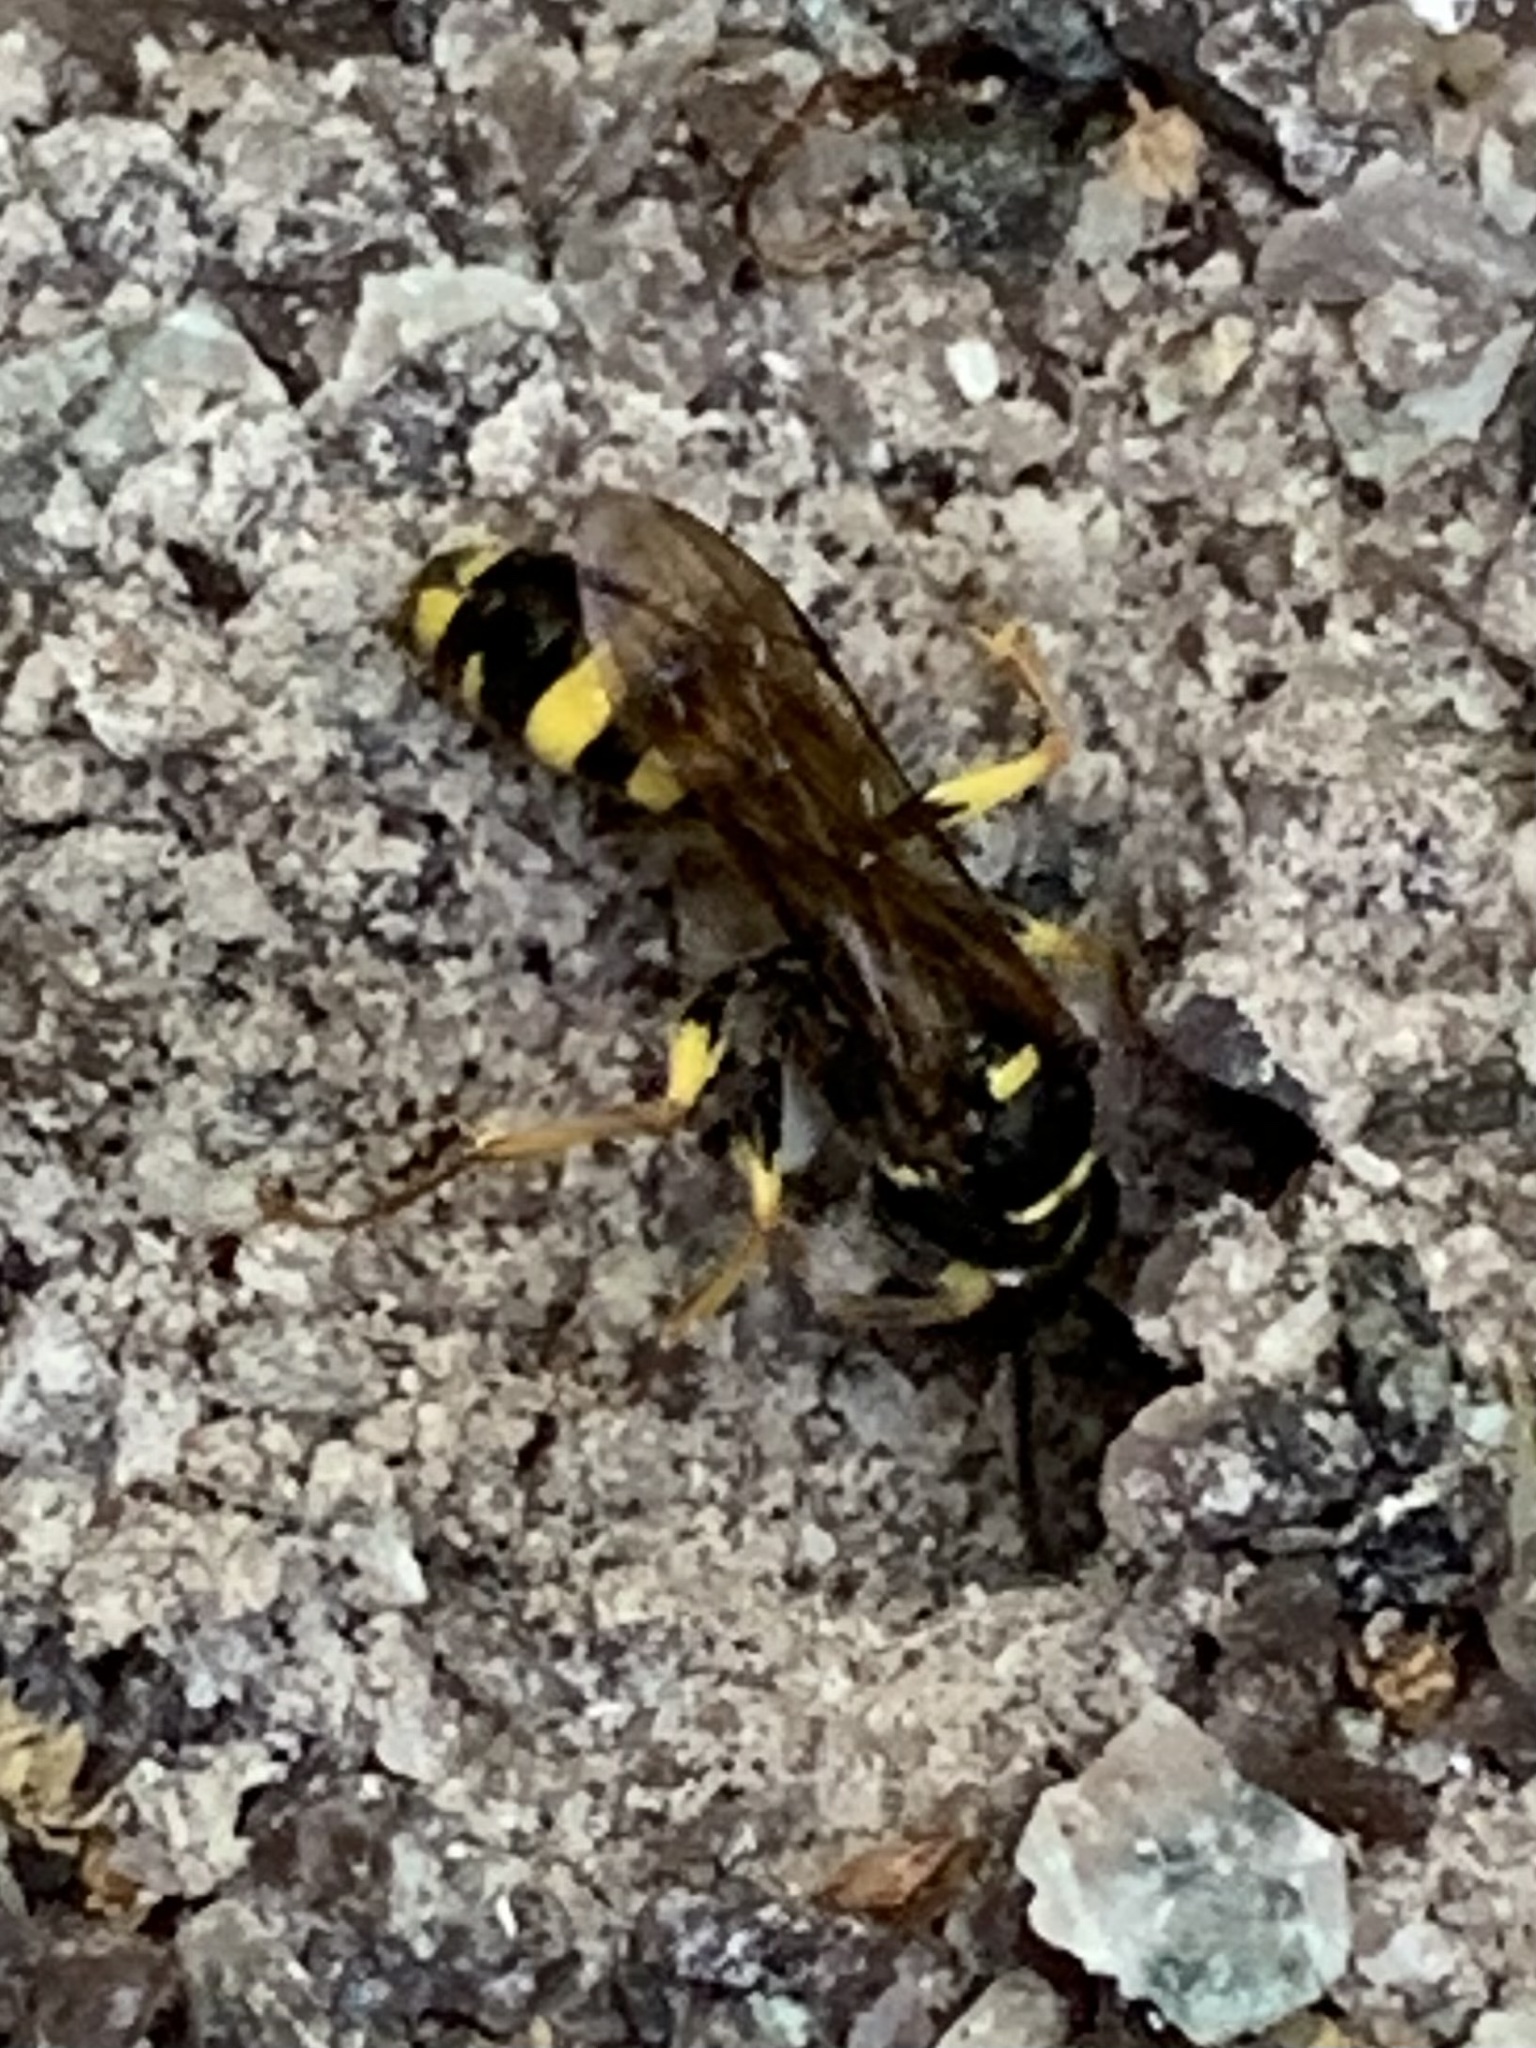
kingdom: Animalia
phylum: Arthropoda
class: Insecta
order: Hymenoptera
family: Crabronidae
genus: Mellinus
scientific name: Mellinus arvensis
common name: Field digger wasp
